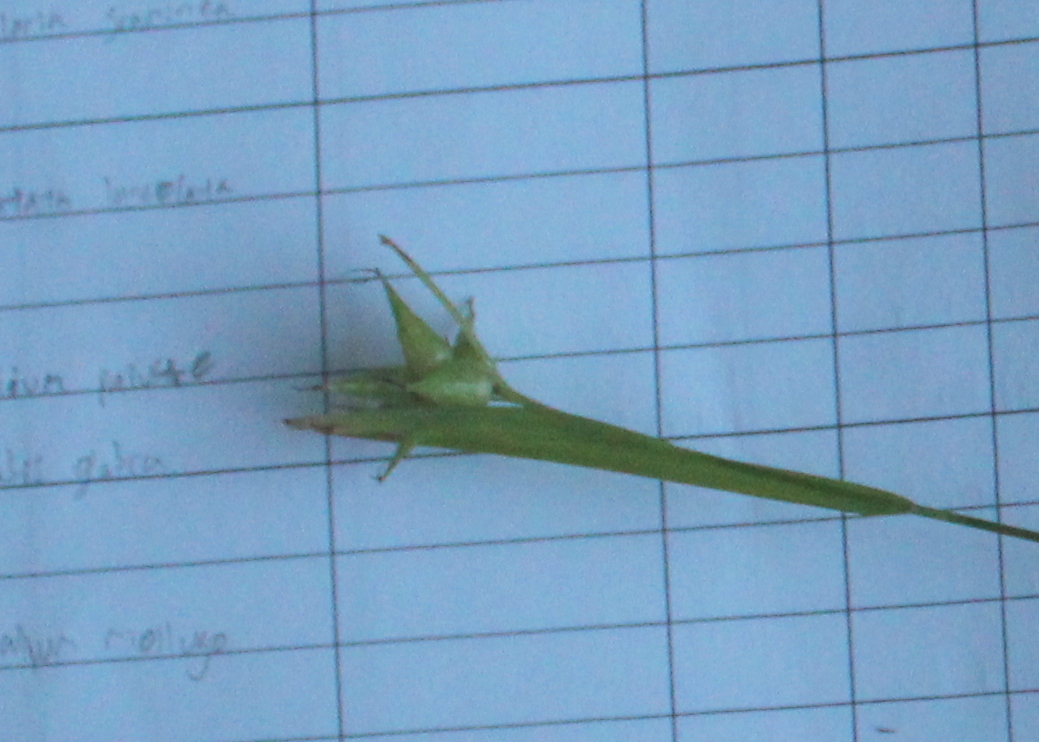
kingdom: Plantae
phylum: Tracheophyta
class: Liliopsida
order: Poales
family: Cyperaceae
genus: Carex
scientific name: Carex intumescens
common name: Greater bladder sedge
